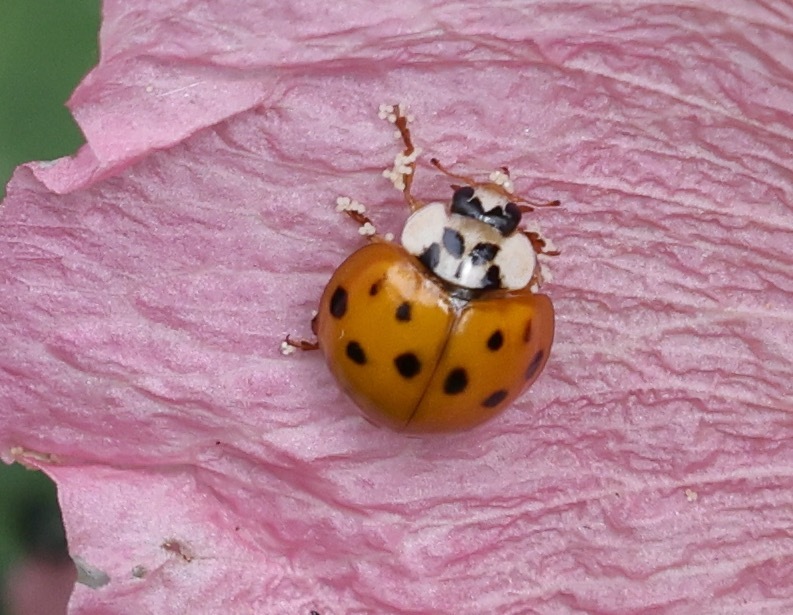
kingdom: Animalia
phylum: Arthropoda
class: Insecta
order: Coleoptera
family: Coccinellidae
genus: Harmonia
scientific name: Harmonia axyridis
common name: Harlequin ladybird
